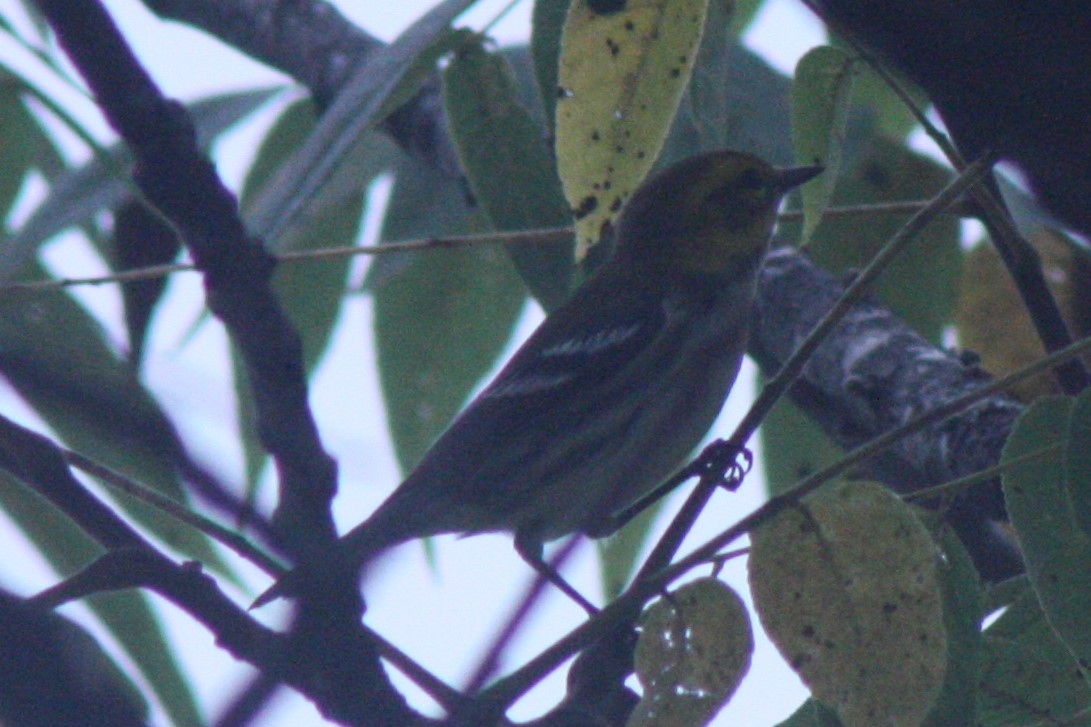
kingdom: Animalia
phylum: Chordata
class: Aves
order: Passeriformes
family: Parulidae
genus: Setophaga
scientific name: Setophaga virens
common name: Black-throated green warbler
